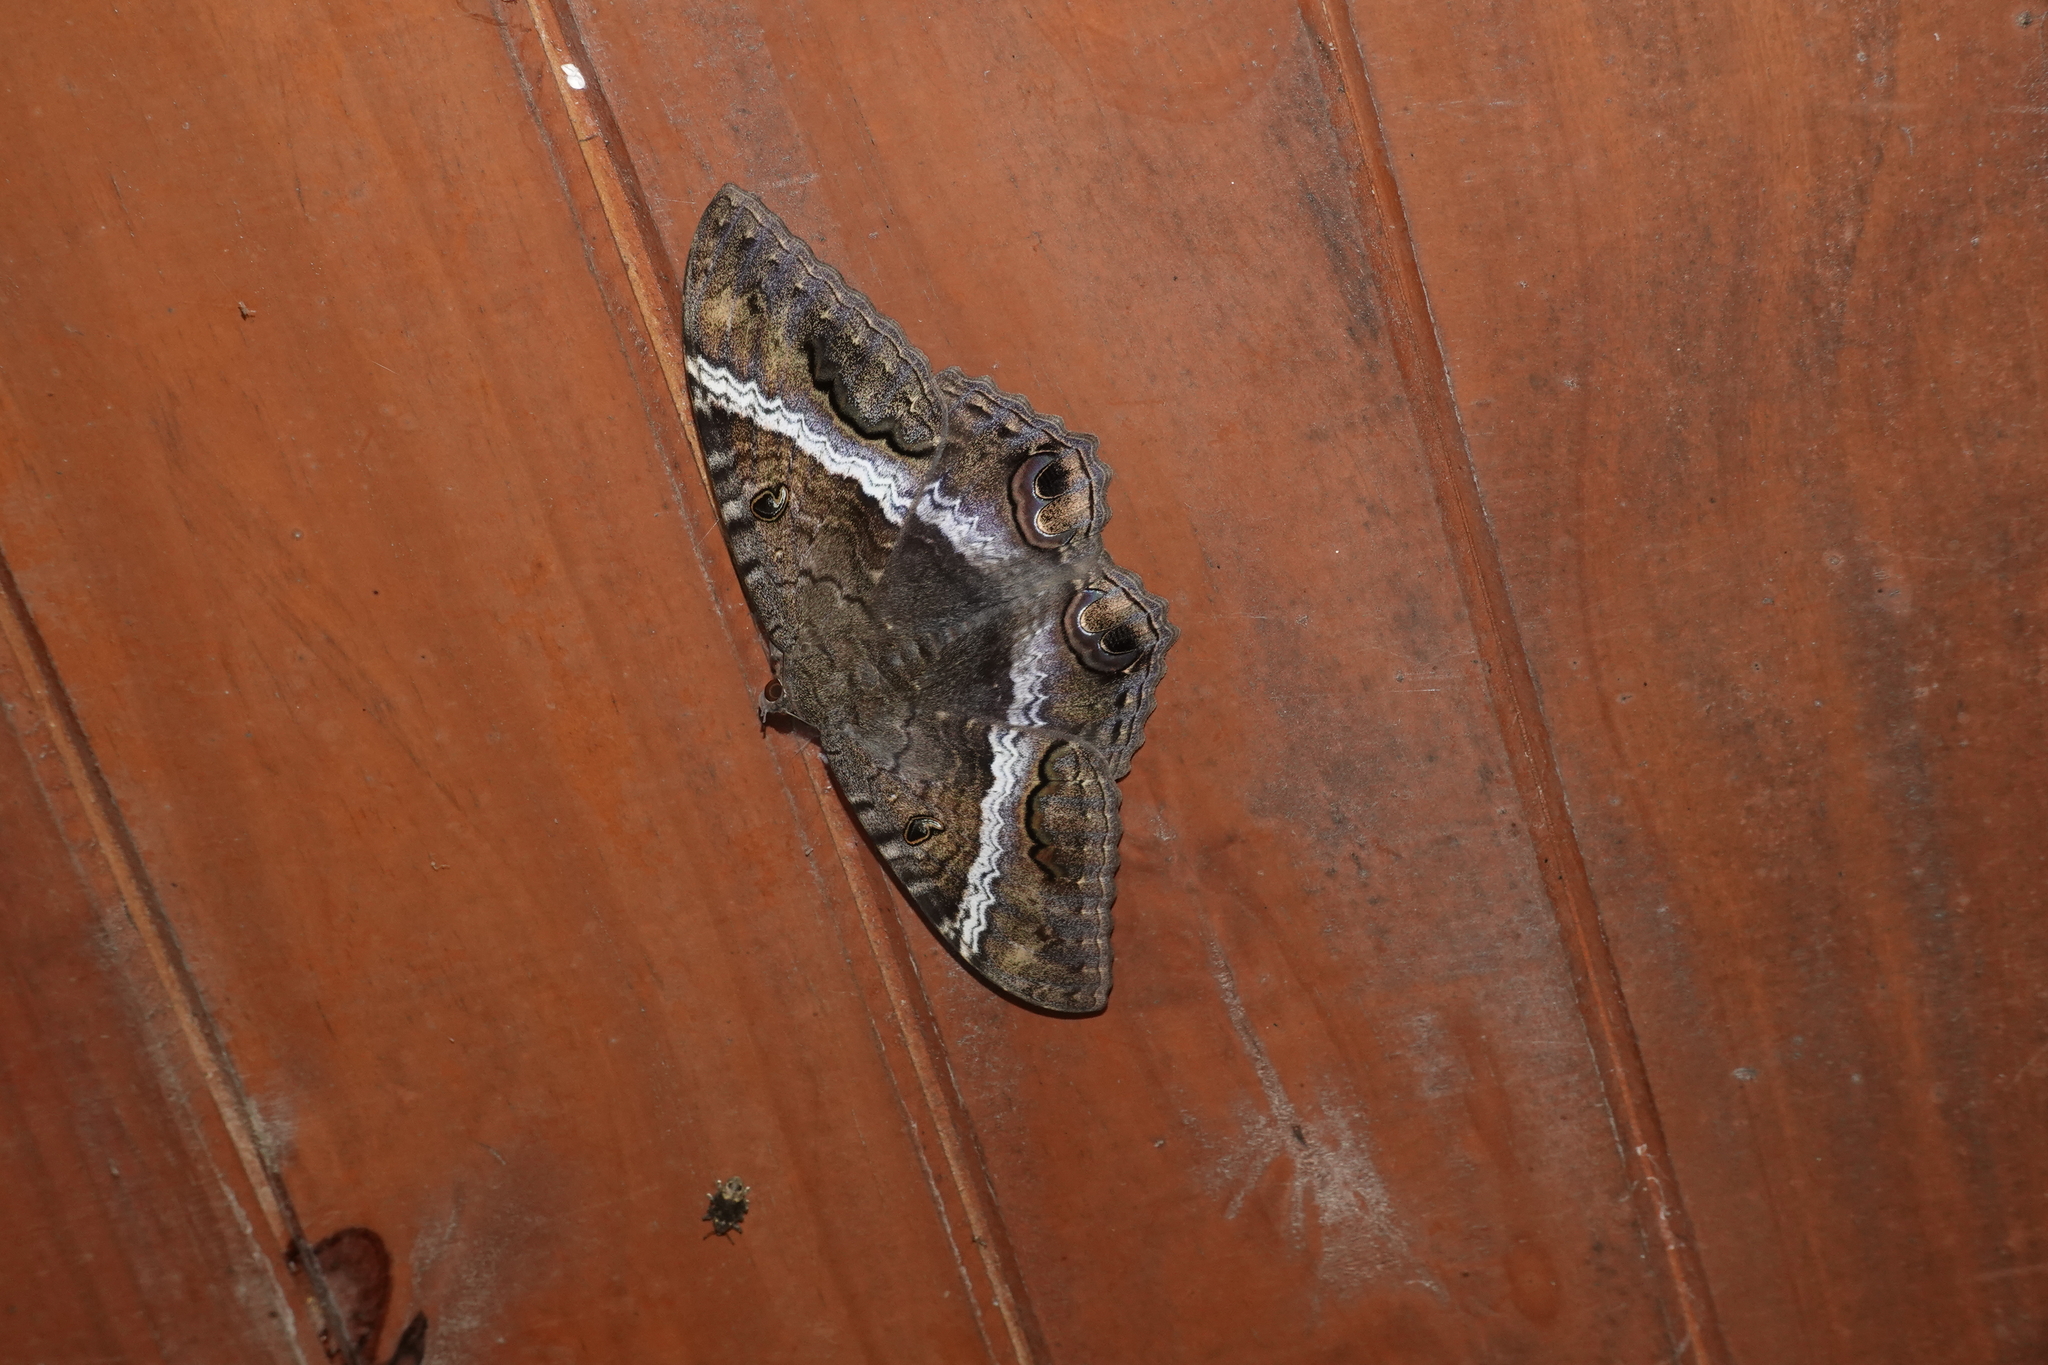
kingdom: Animalia
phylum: Arthropoda
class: Insecta
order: Lepidoptera
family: Erebidae
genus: Ascalapha
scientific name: Ascalapha odorata
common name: Black witch
